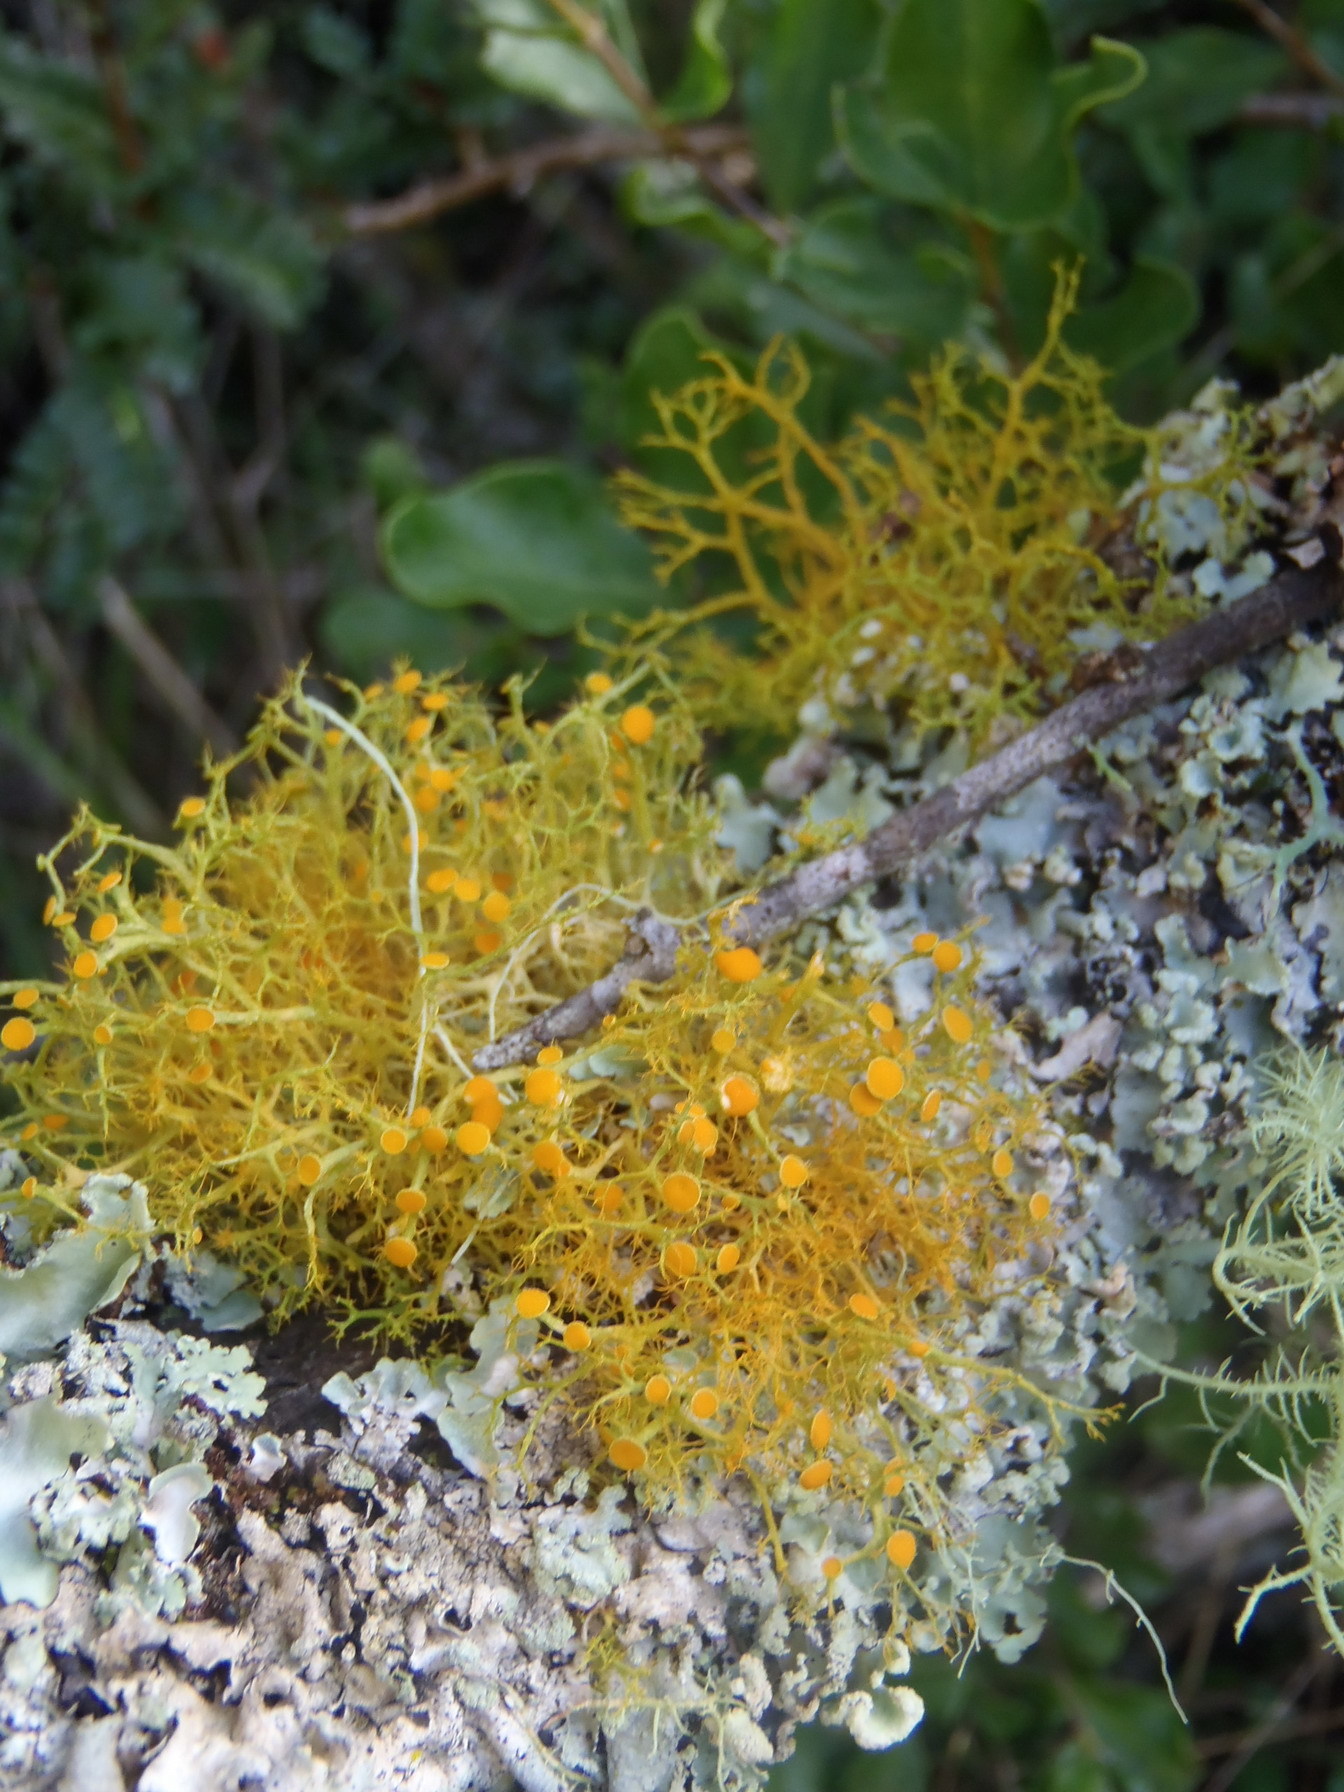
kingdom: Fungi
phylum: Ascomycota
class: Lecanoromycetes
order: Teloschistales
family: Teloschistaceae
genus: Teloschistes
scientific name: Teloschistes exilis
